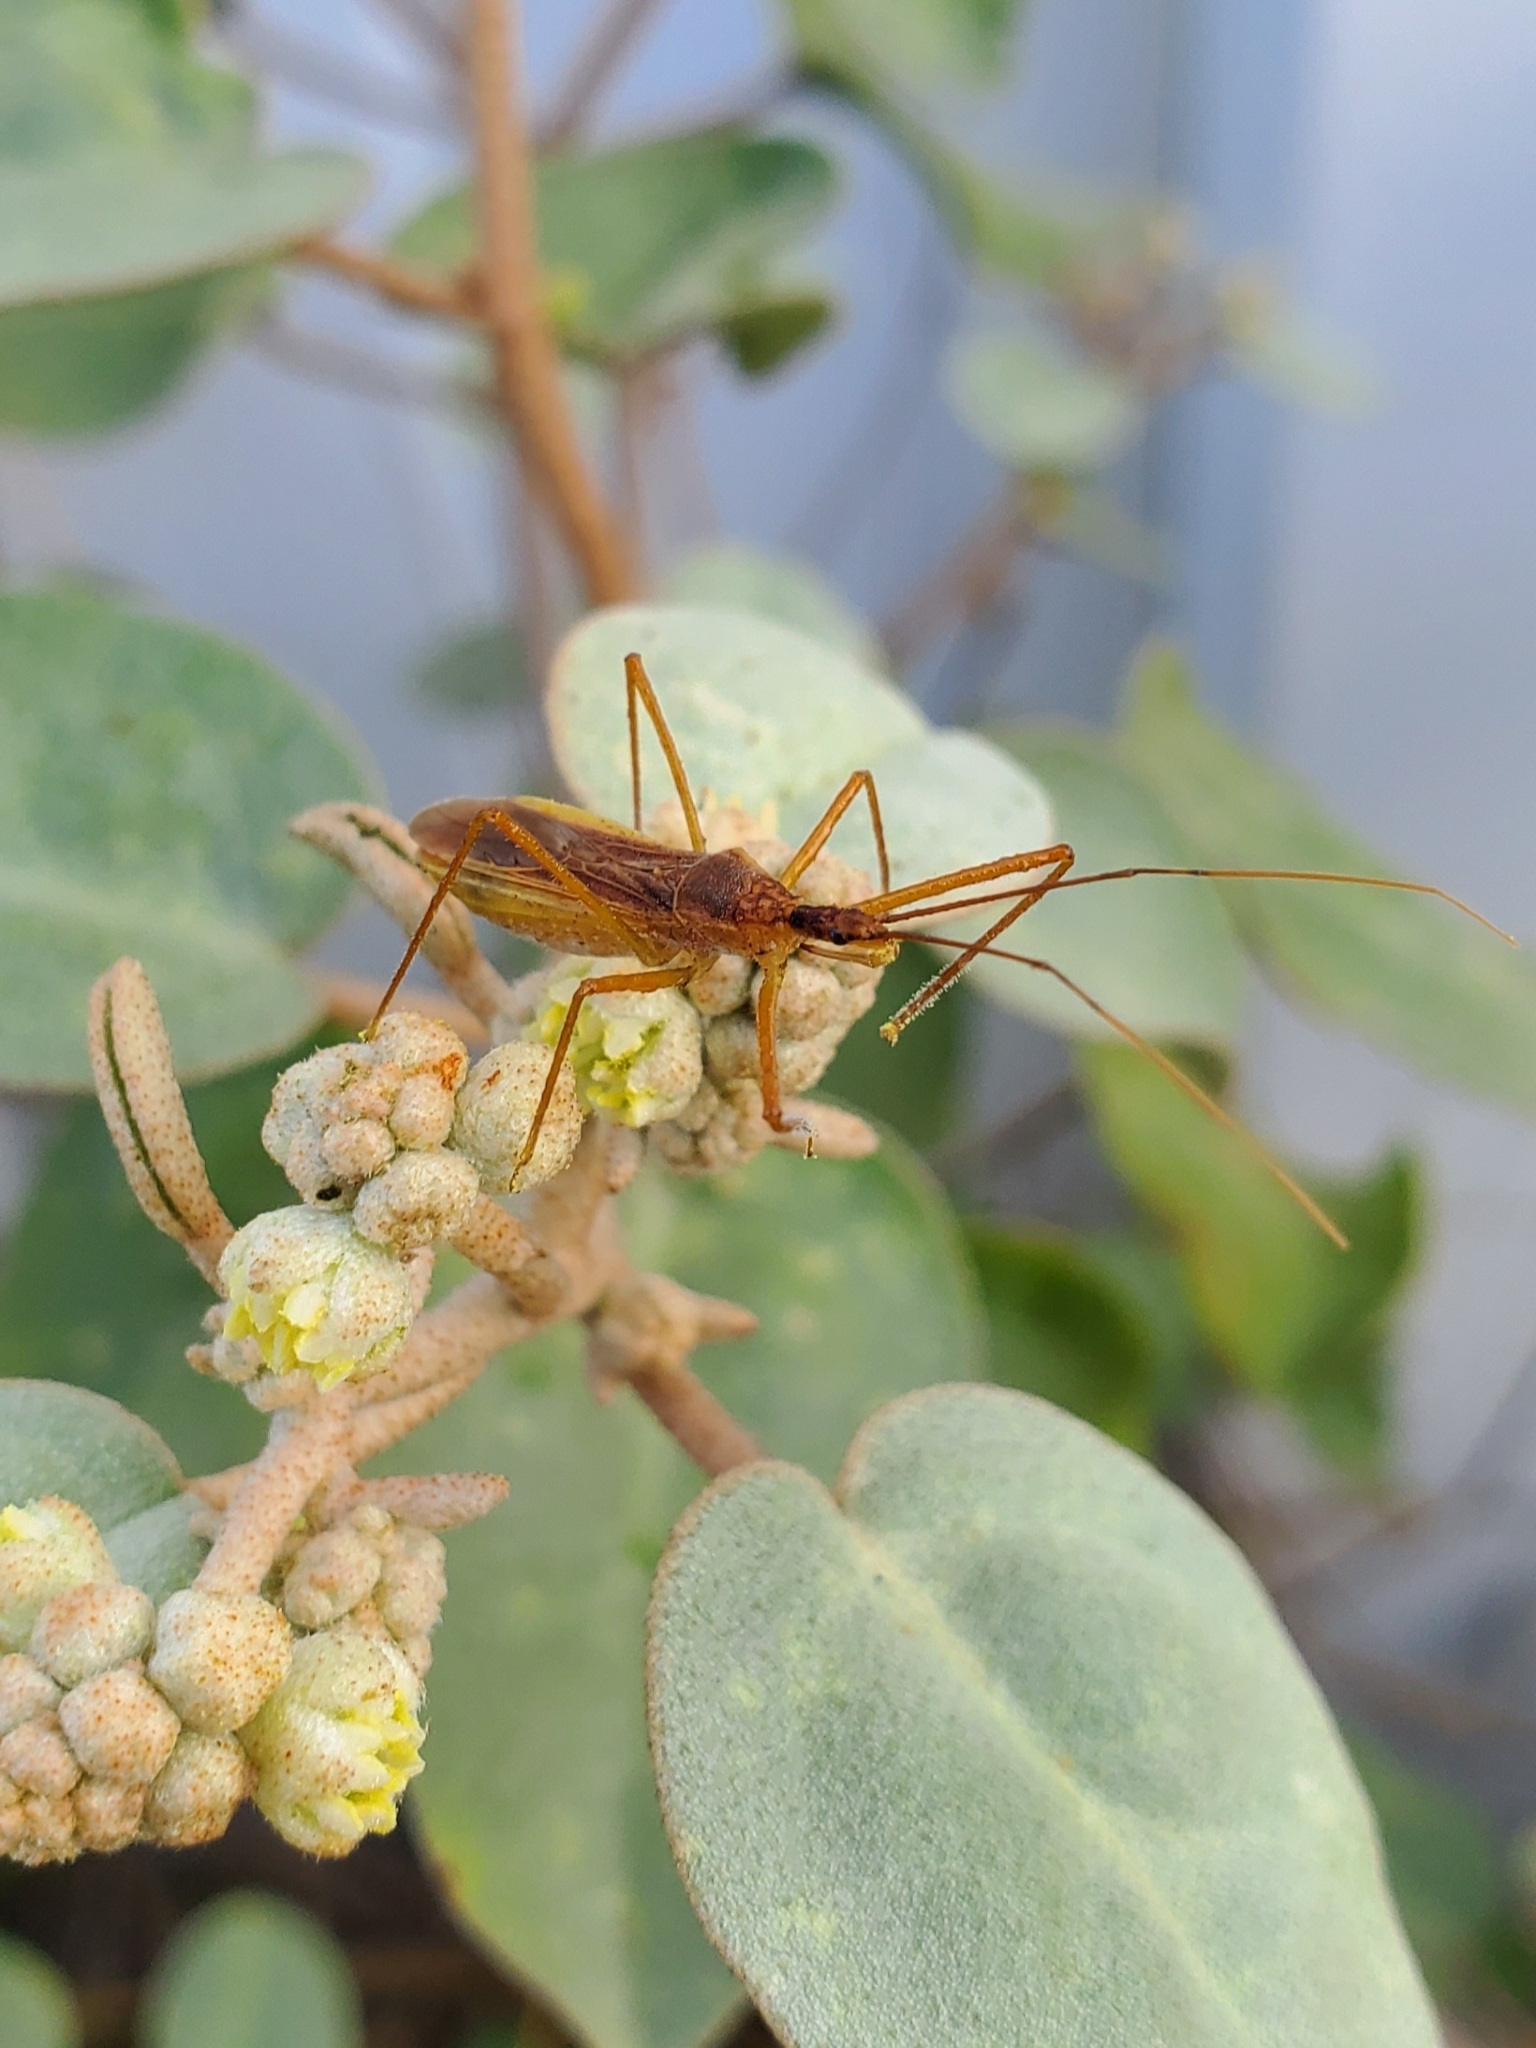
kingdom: Animalia
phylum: Arthropoda
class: Insecta
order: Hemiptera
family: Reduviidae
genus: Zelus
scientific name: Zelus cervicalis
